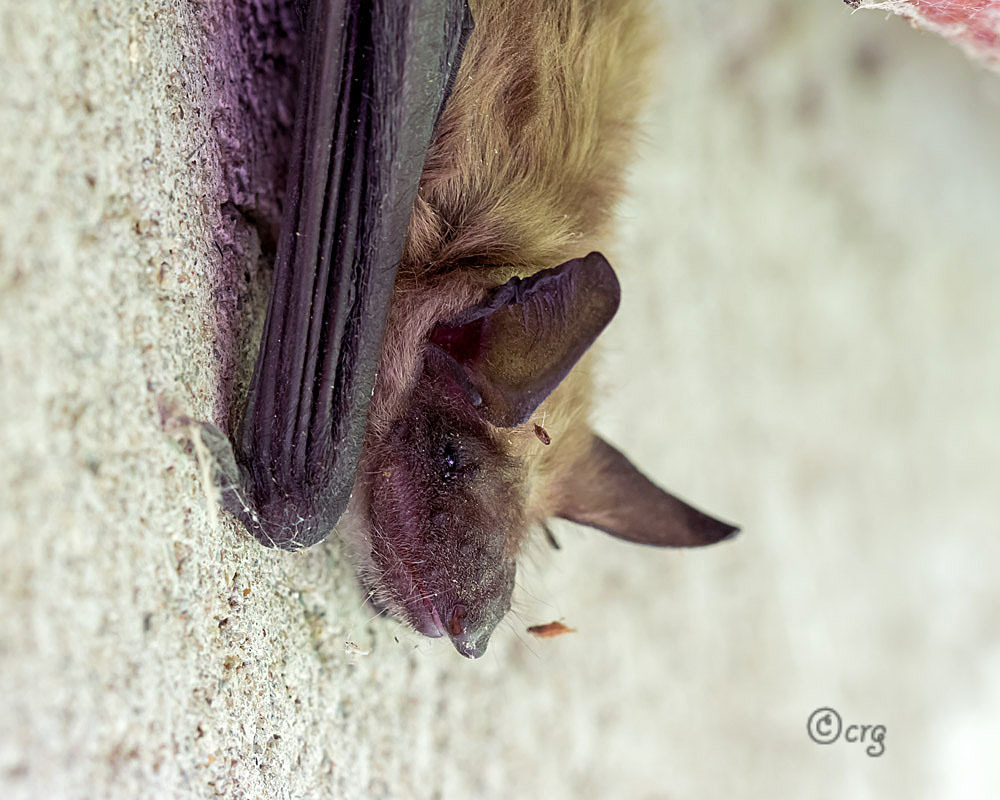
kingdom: Animalia
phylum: Chordata
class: Mammalia
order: Chiroptera
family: Vespertilionidae
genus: Eptesicus
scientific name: Eptesicus fuscus
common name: Big brown bat
